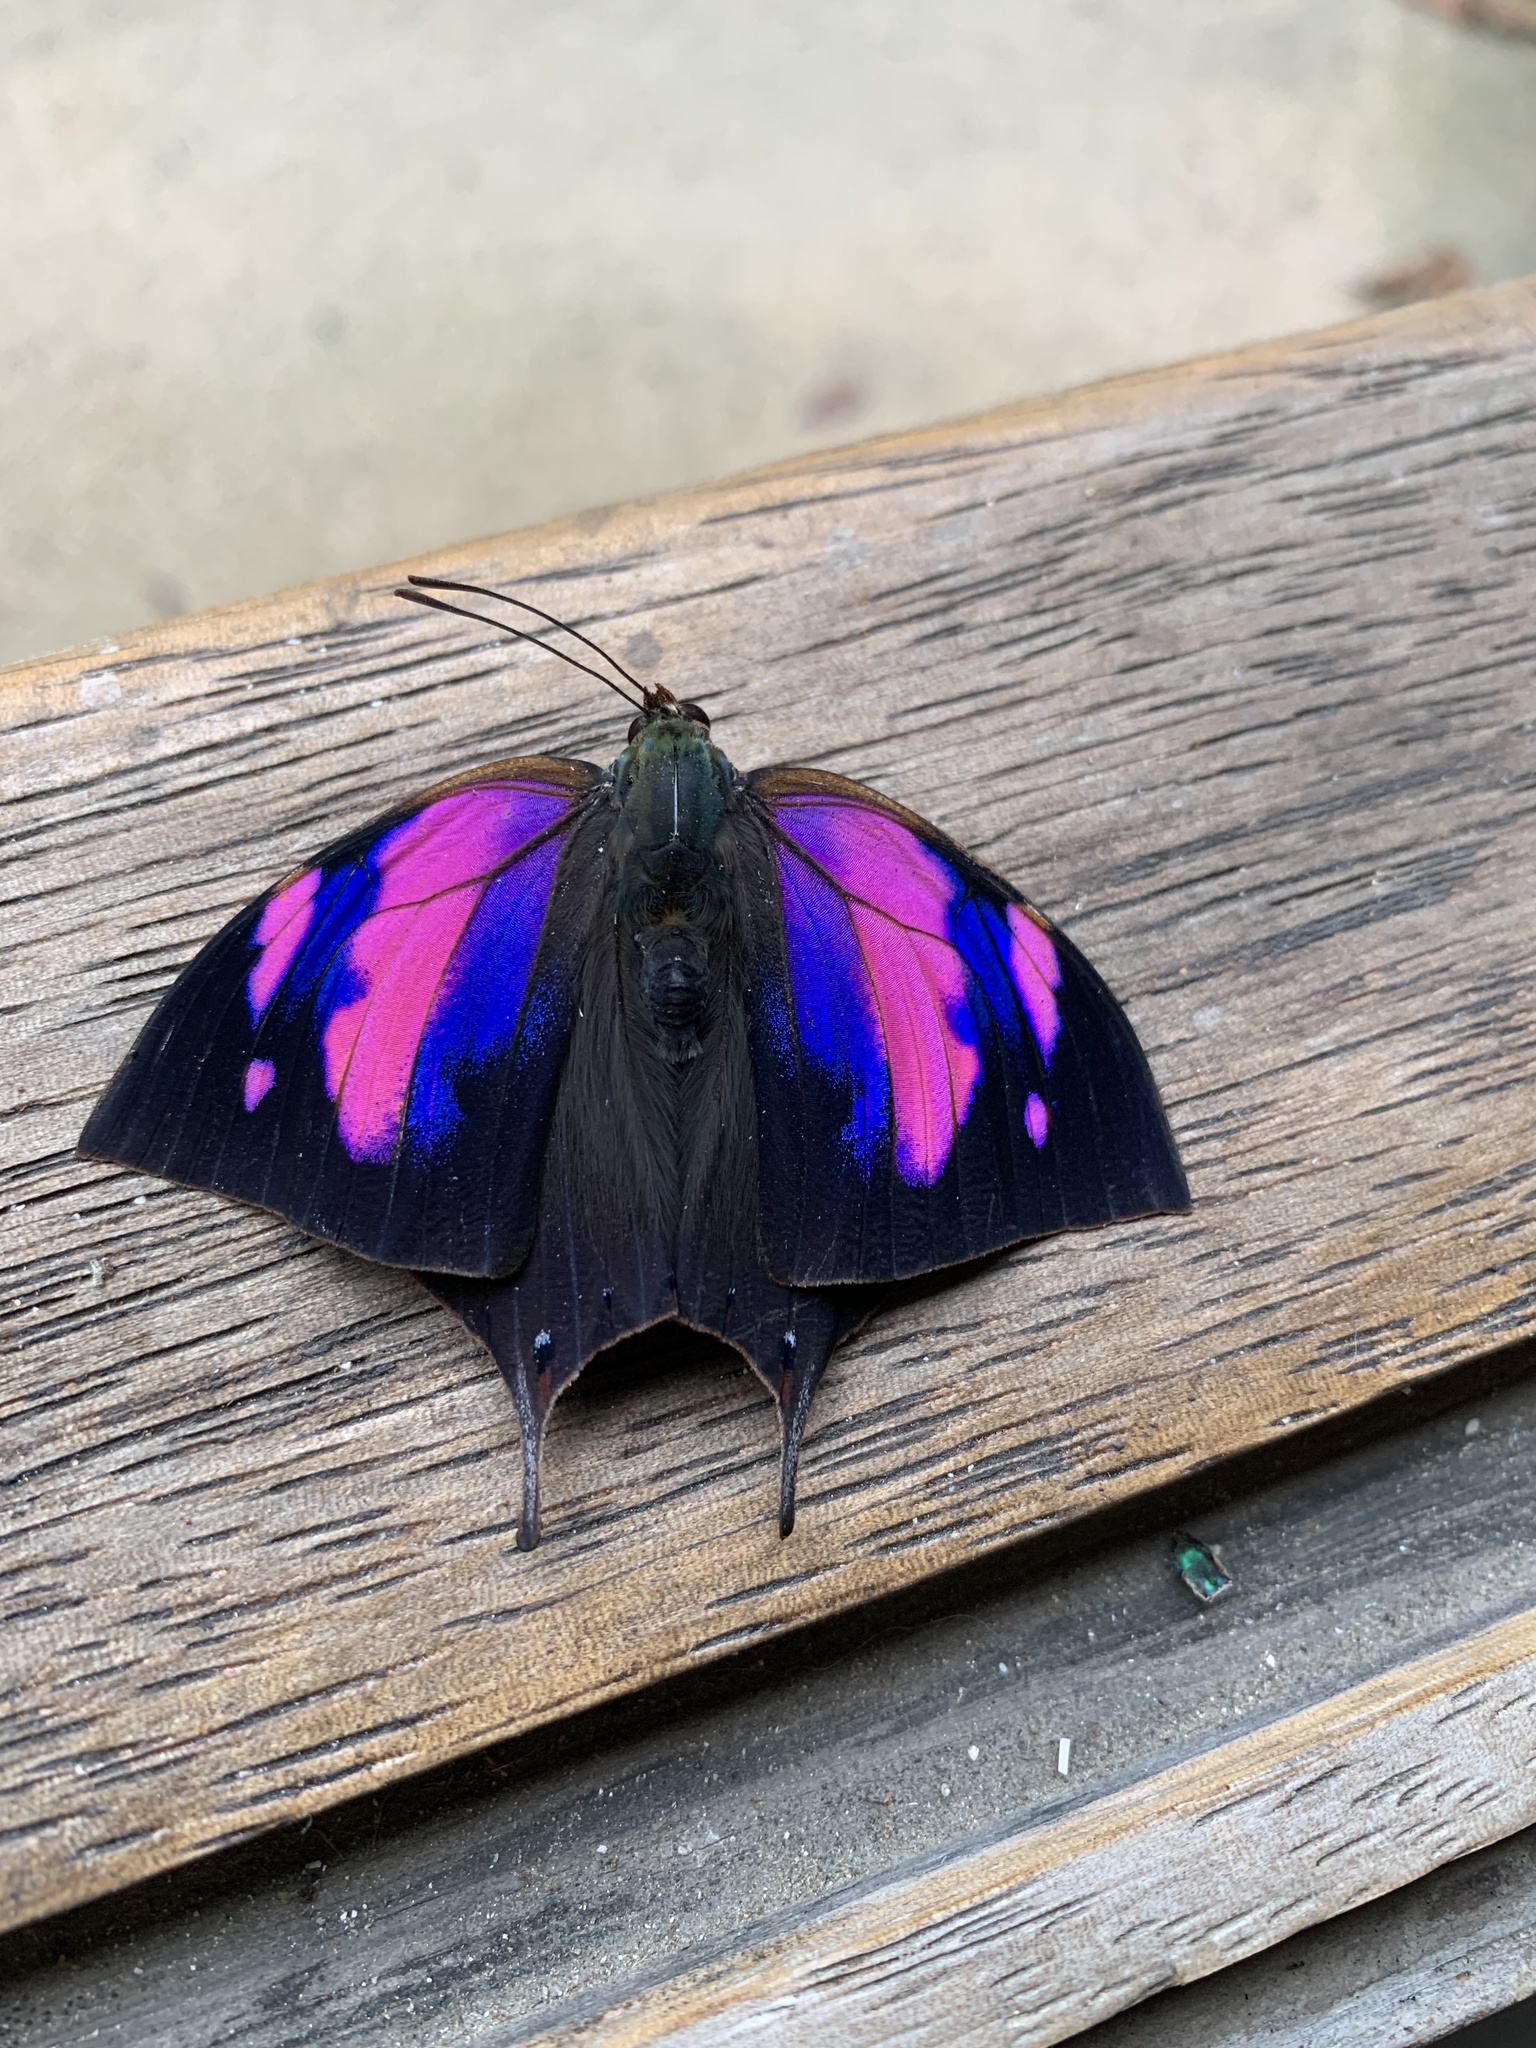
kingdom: Animalia
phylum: Arthropoda
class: Insecta
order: Lepidoptera
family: Nymphalidae
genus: Fountainea
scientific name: Fountainea
